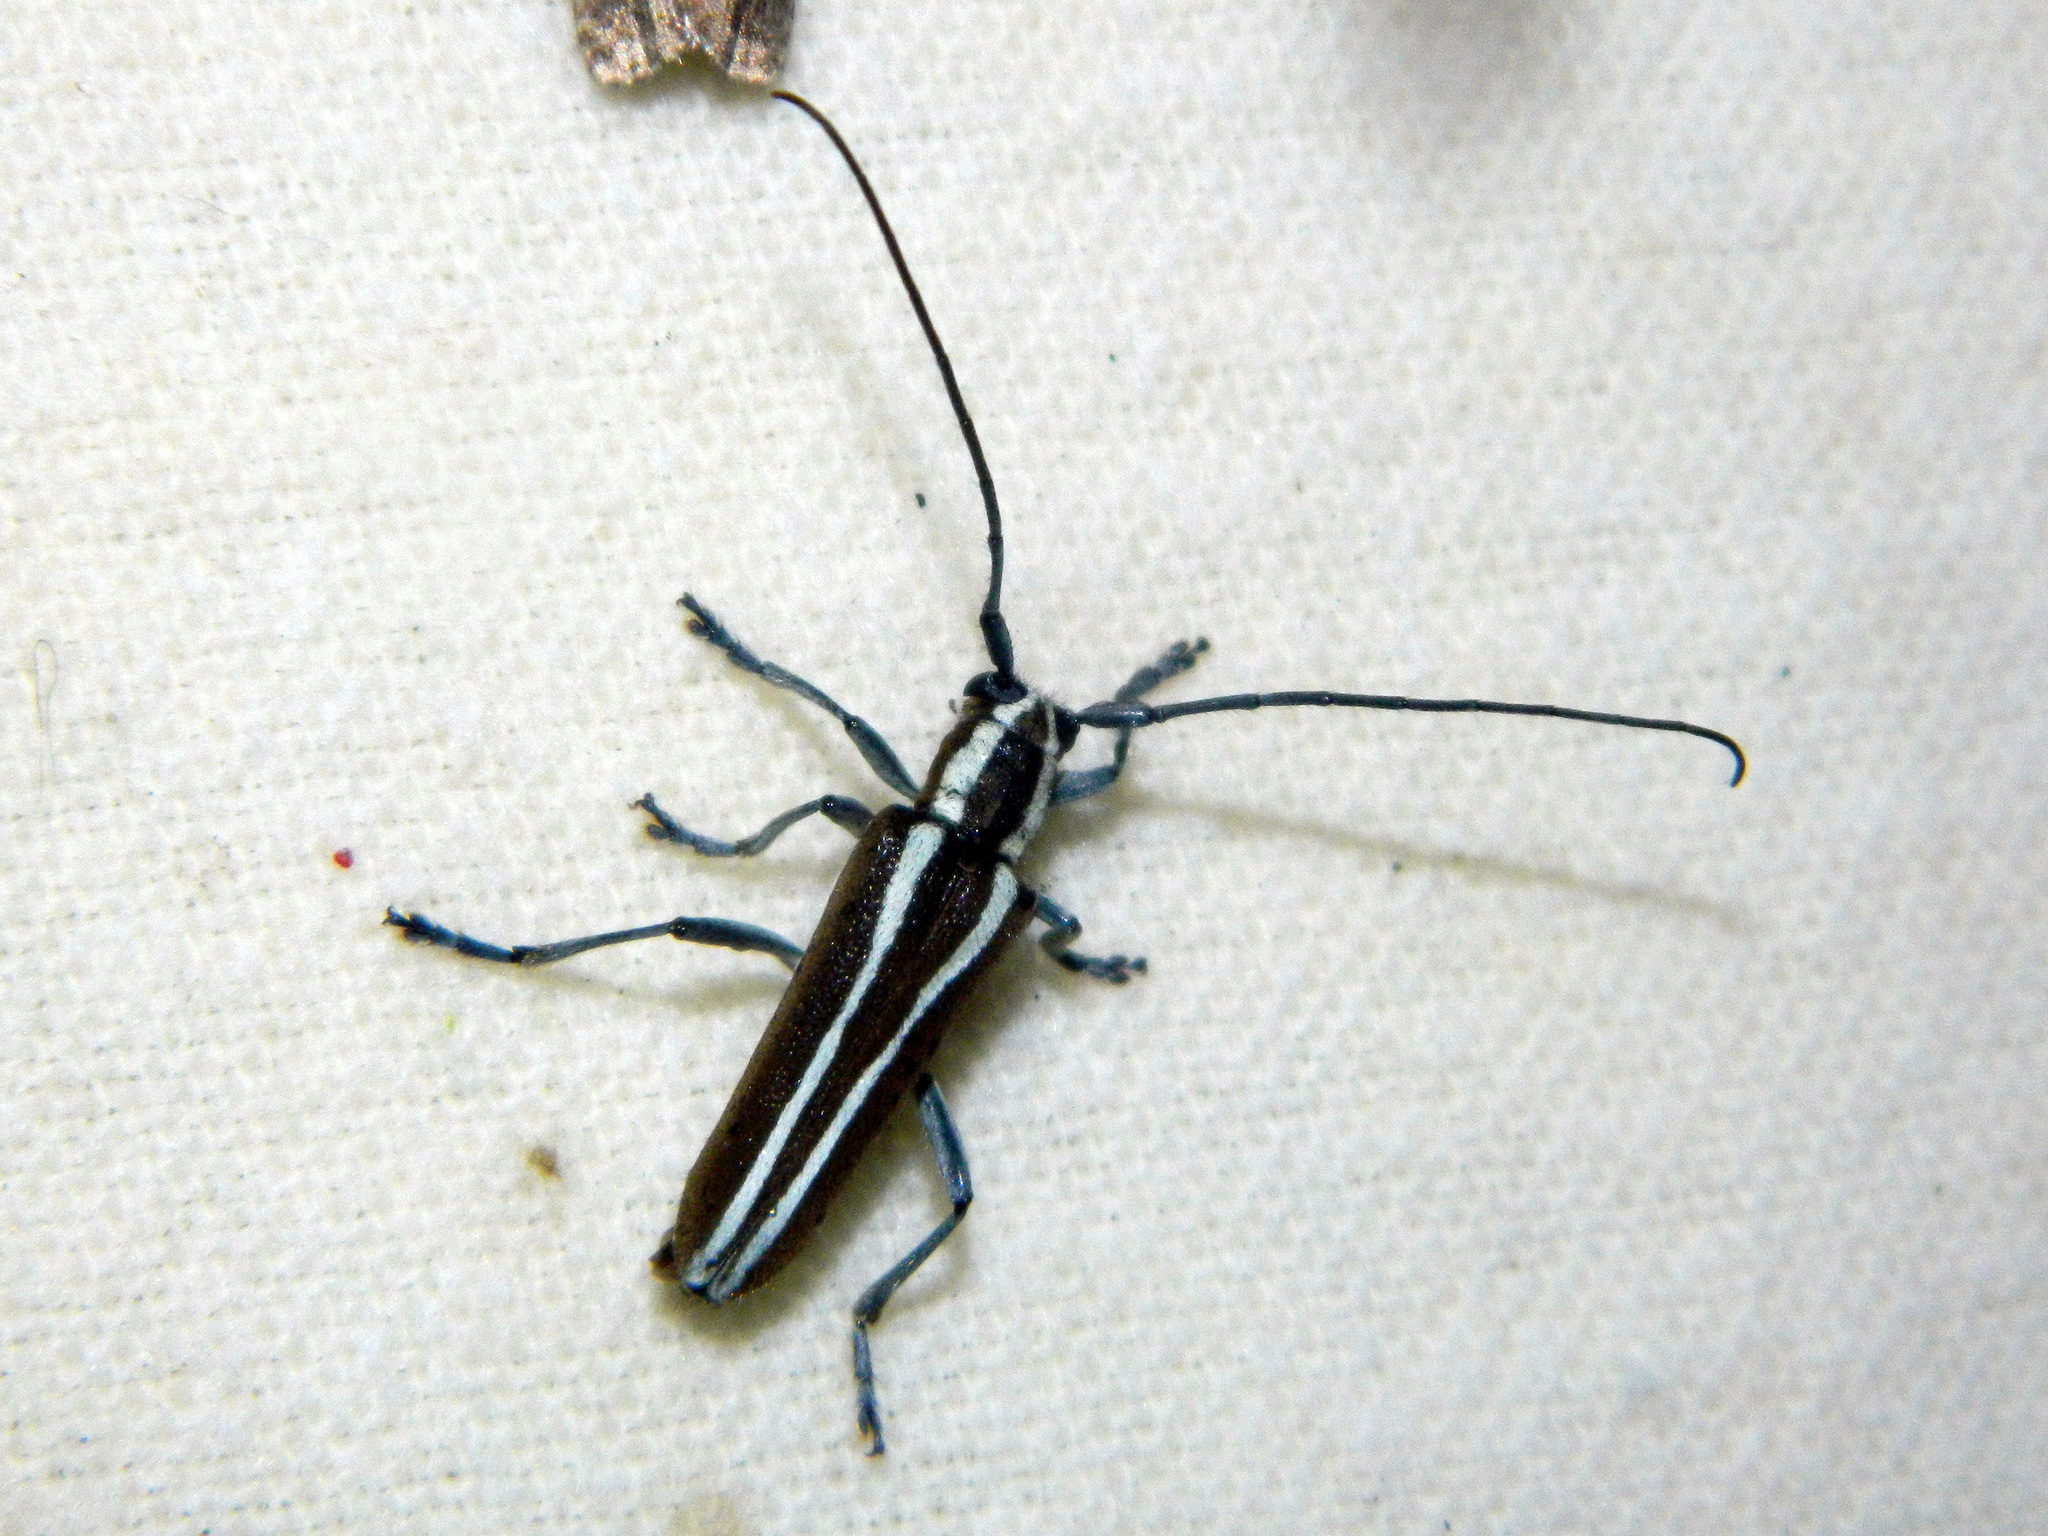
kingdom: Animalia
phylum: Arthropoda
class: Insecta
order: Coleoptera
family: Cerambycidae
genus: Saperda
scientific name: Saperda candida
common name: Round-headed borer
